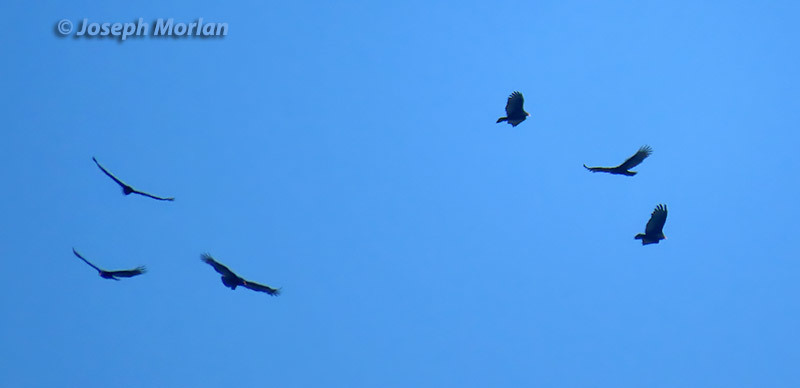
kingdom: Animalia
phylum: Chordata
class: Aves
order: Accipitriformes
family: Cathartidae
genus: Cathartes
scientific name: Cathartes aura
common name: Turkey vulture
